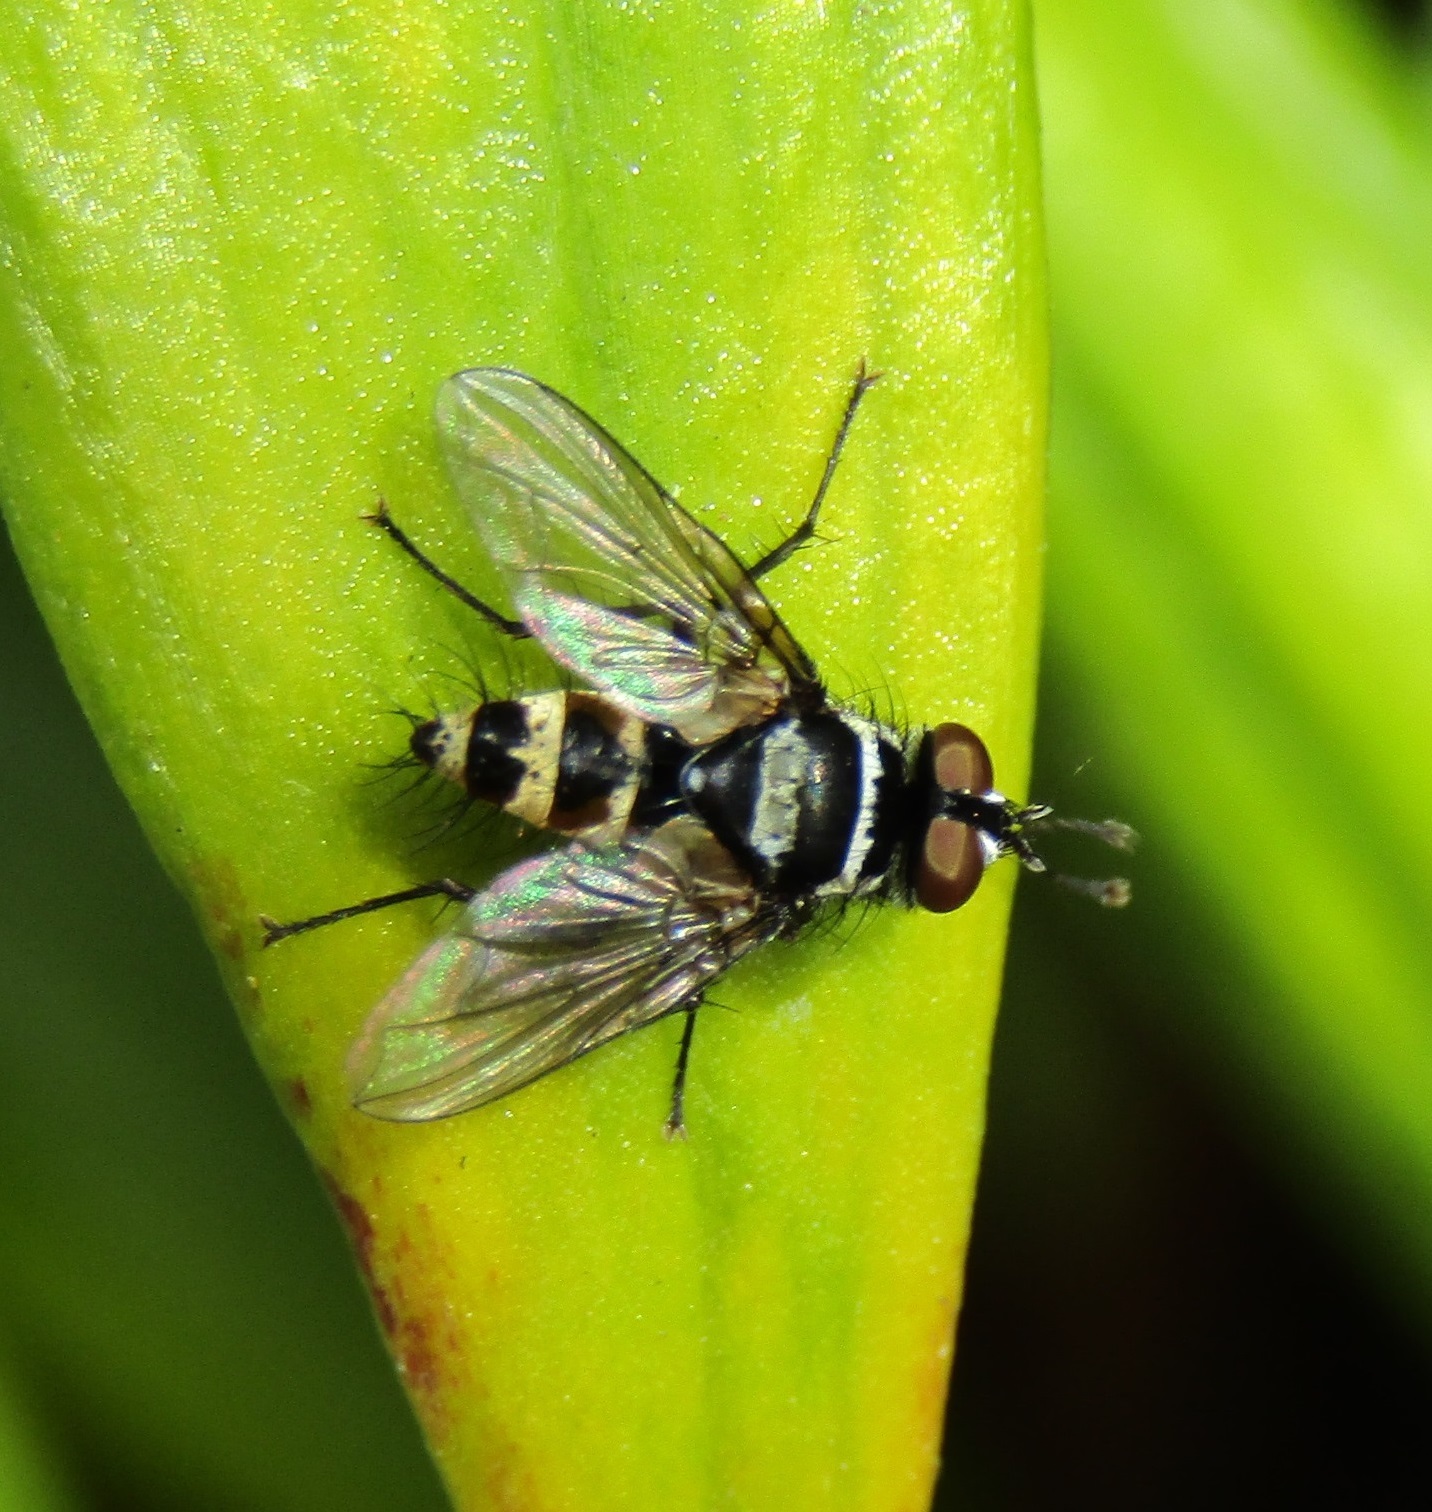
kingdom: Animalia
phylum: Arthropoda
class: Insecta
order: Diptera
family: Tachinidae
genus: Trigonospila
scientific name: Trigonospila brevifacies
